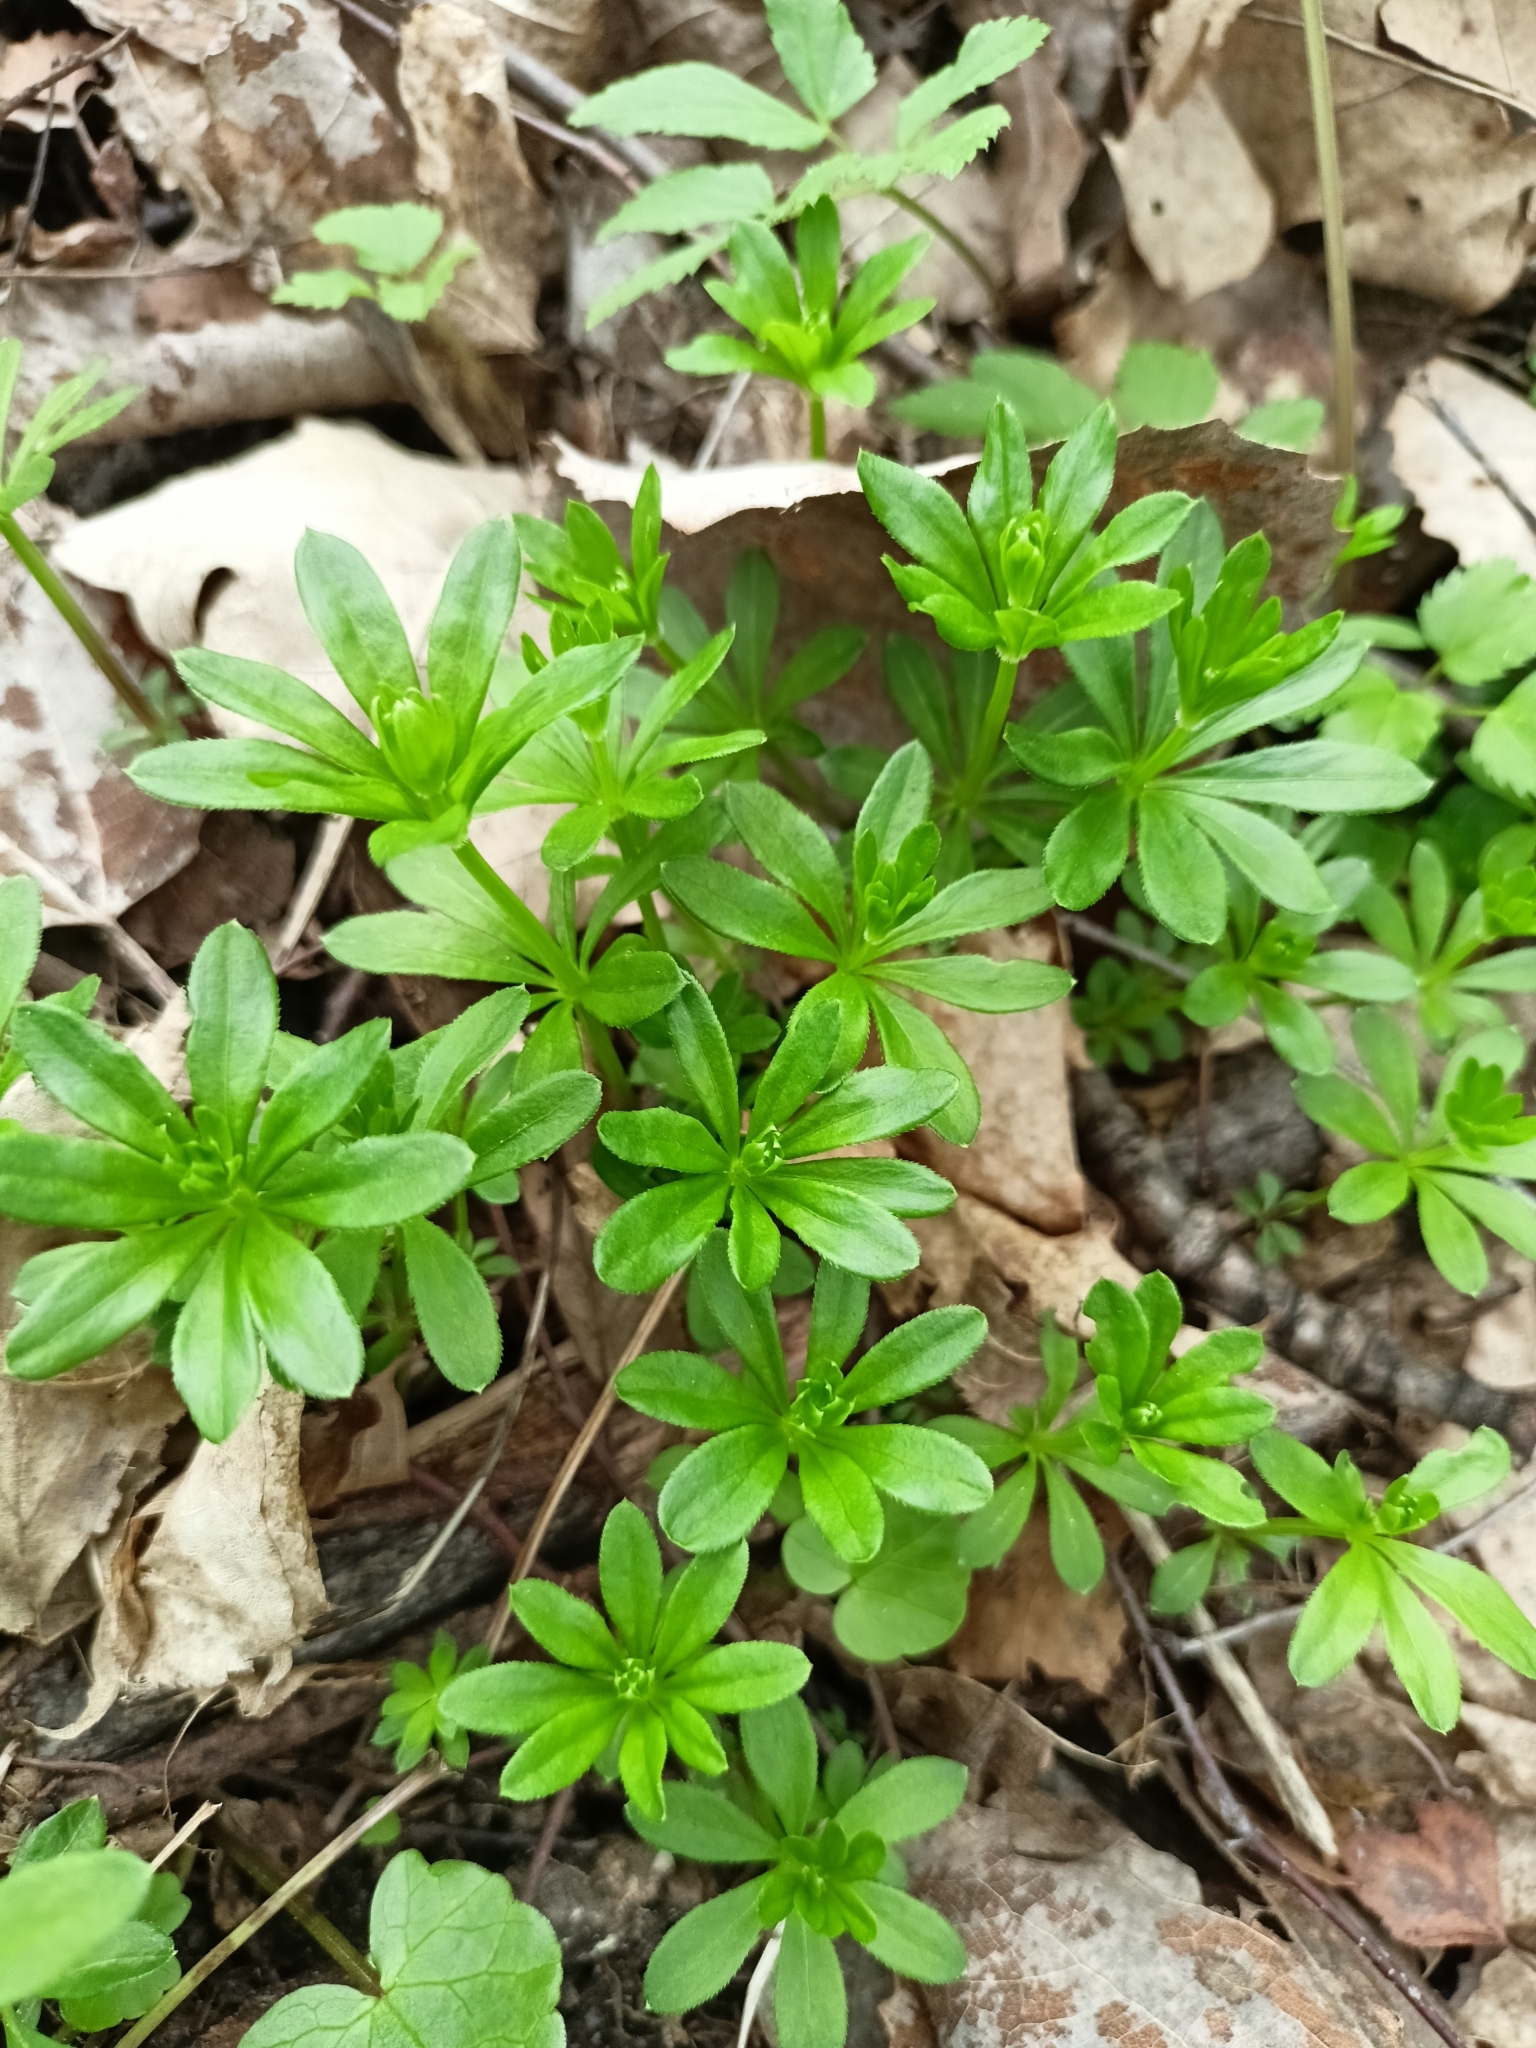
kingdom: Plantae
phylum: Tracheophyta
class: Magnoliopsida
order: Gentianales
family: Rubiaceae
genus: Galium
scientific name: Galium odoratum
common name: Sweet woodruff
